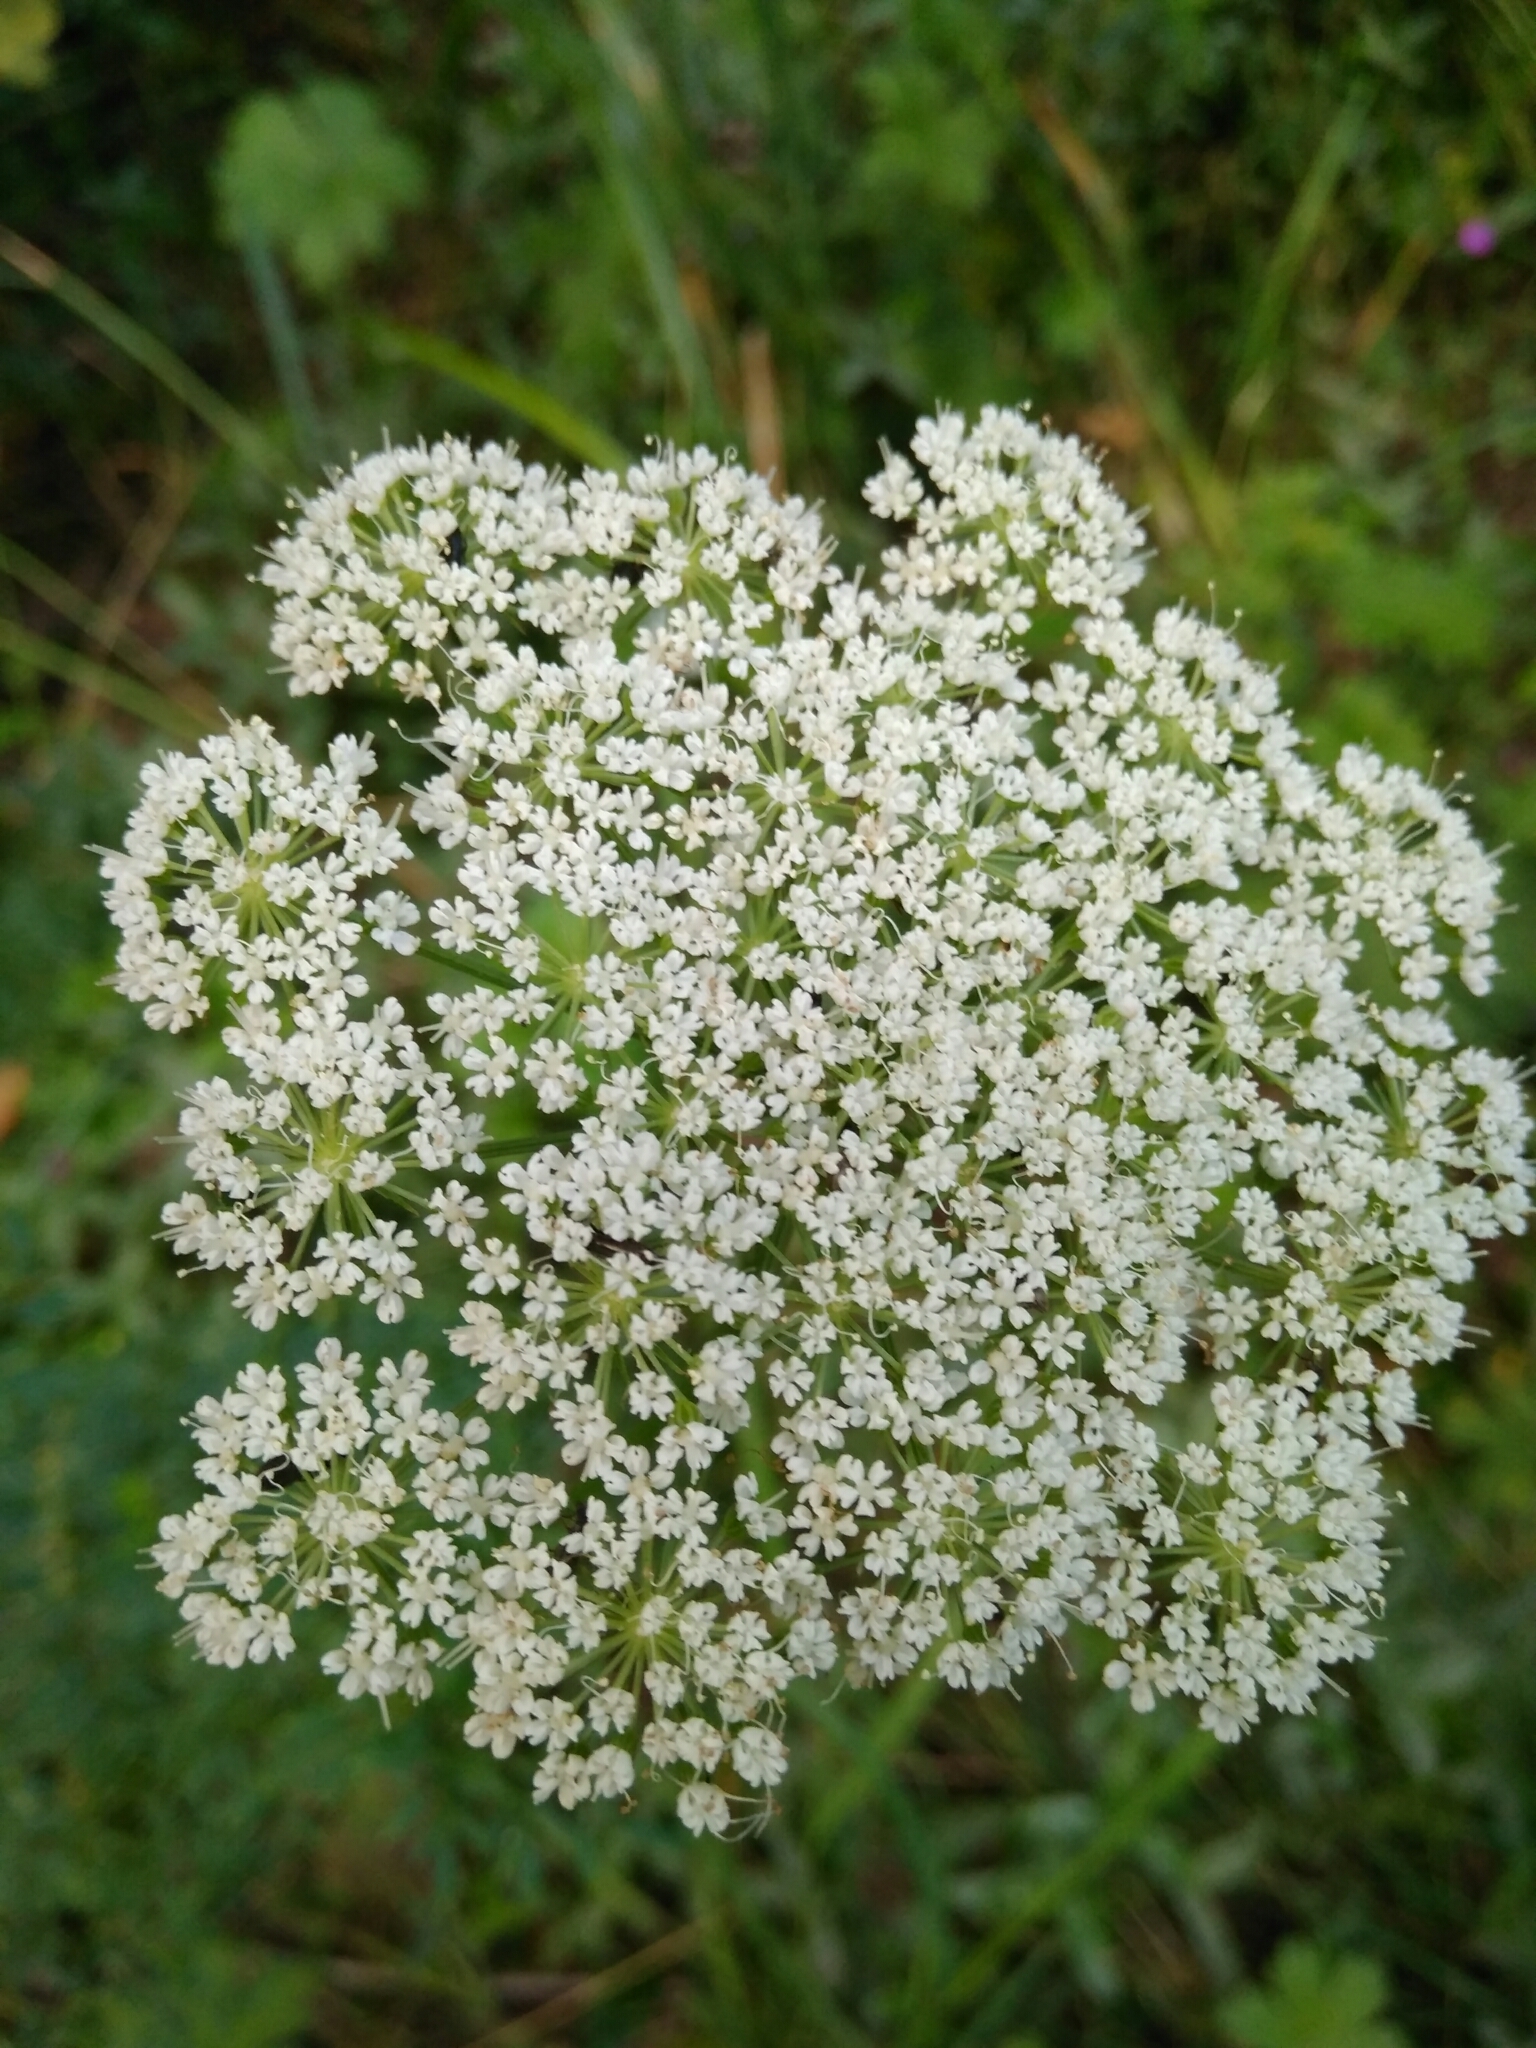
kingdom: Plantae
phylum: Tracheophyta
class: Magnoliopsida
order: Apiales
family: Apiaceae
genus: Selinum
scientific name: Selinum carvifolia
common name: Cambridge milk-parsley
